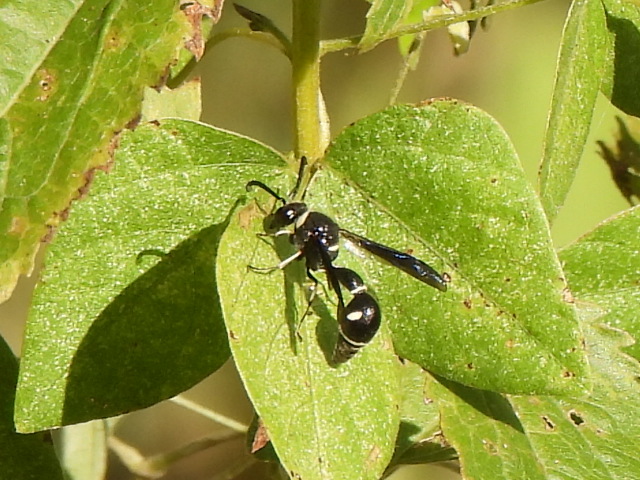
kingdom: Animalia
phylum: Arthropoda
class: Insecta
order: Hymenoptera
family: Vespidae
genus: Eumenes
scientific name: Eumenes fraternus
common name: Fraternal potter wasp
